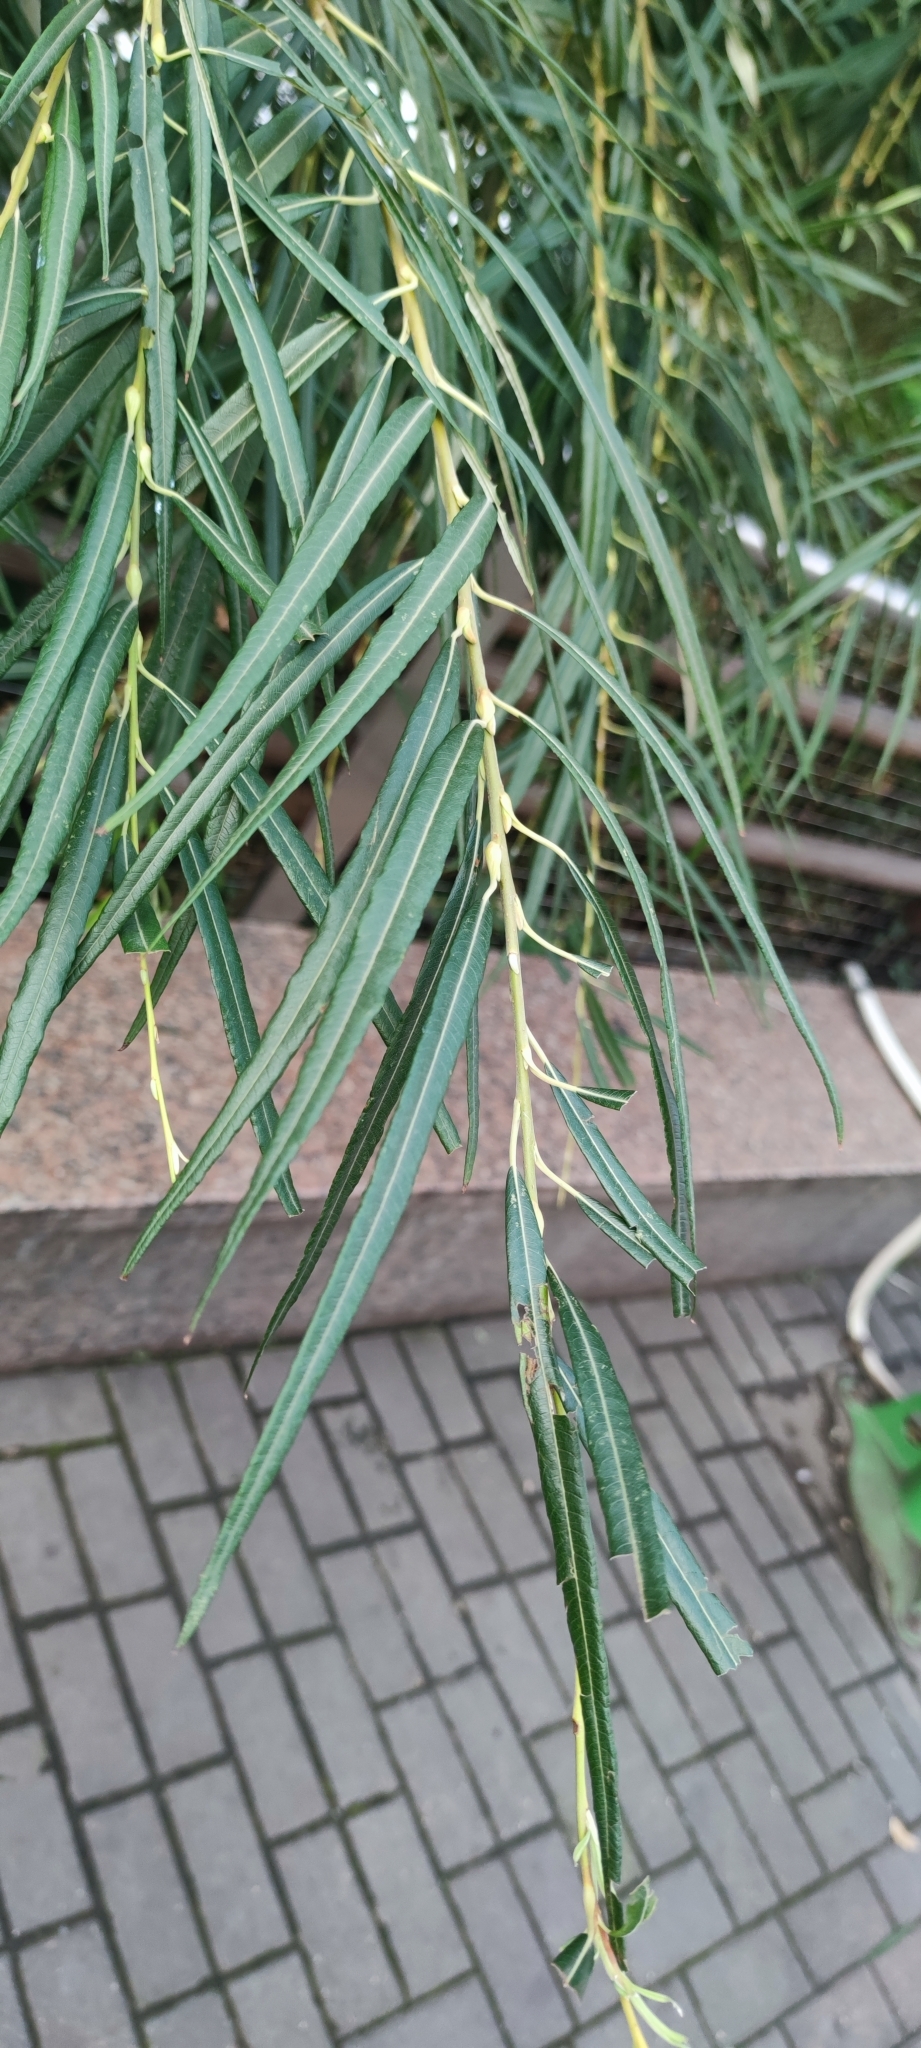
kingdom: Plantae
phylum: Tracheophyta
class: Magnoliopsida
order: Malpighiales
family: Salicaceae
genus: Salix
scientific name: Salix viminalis
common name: Osier
